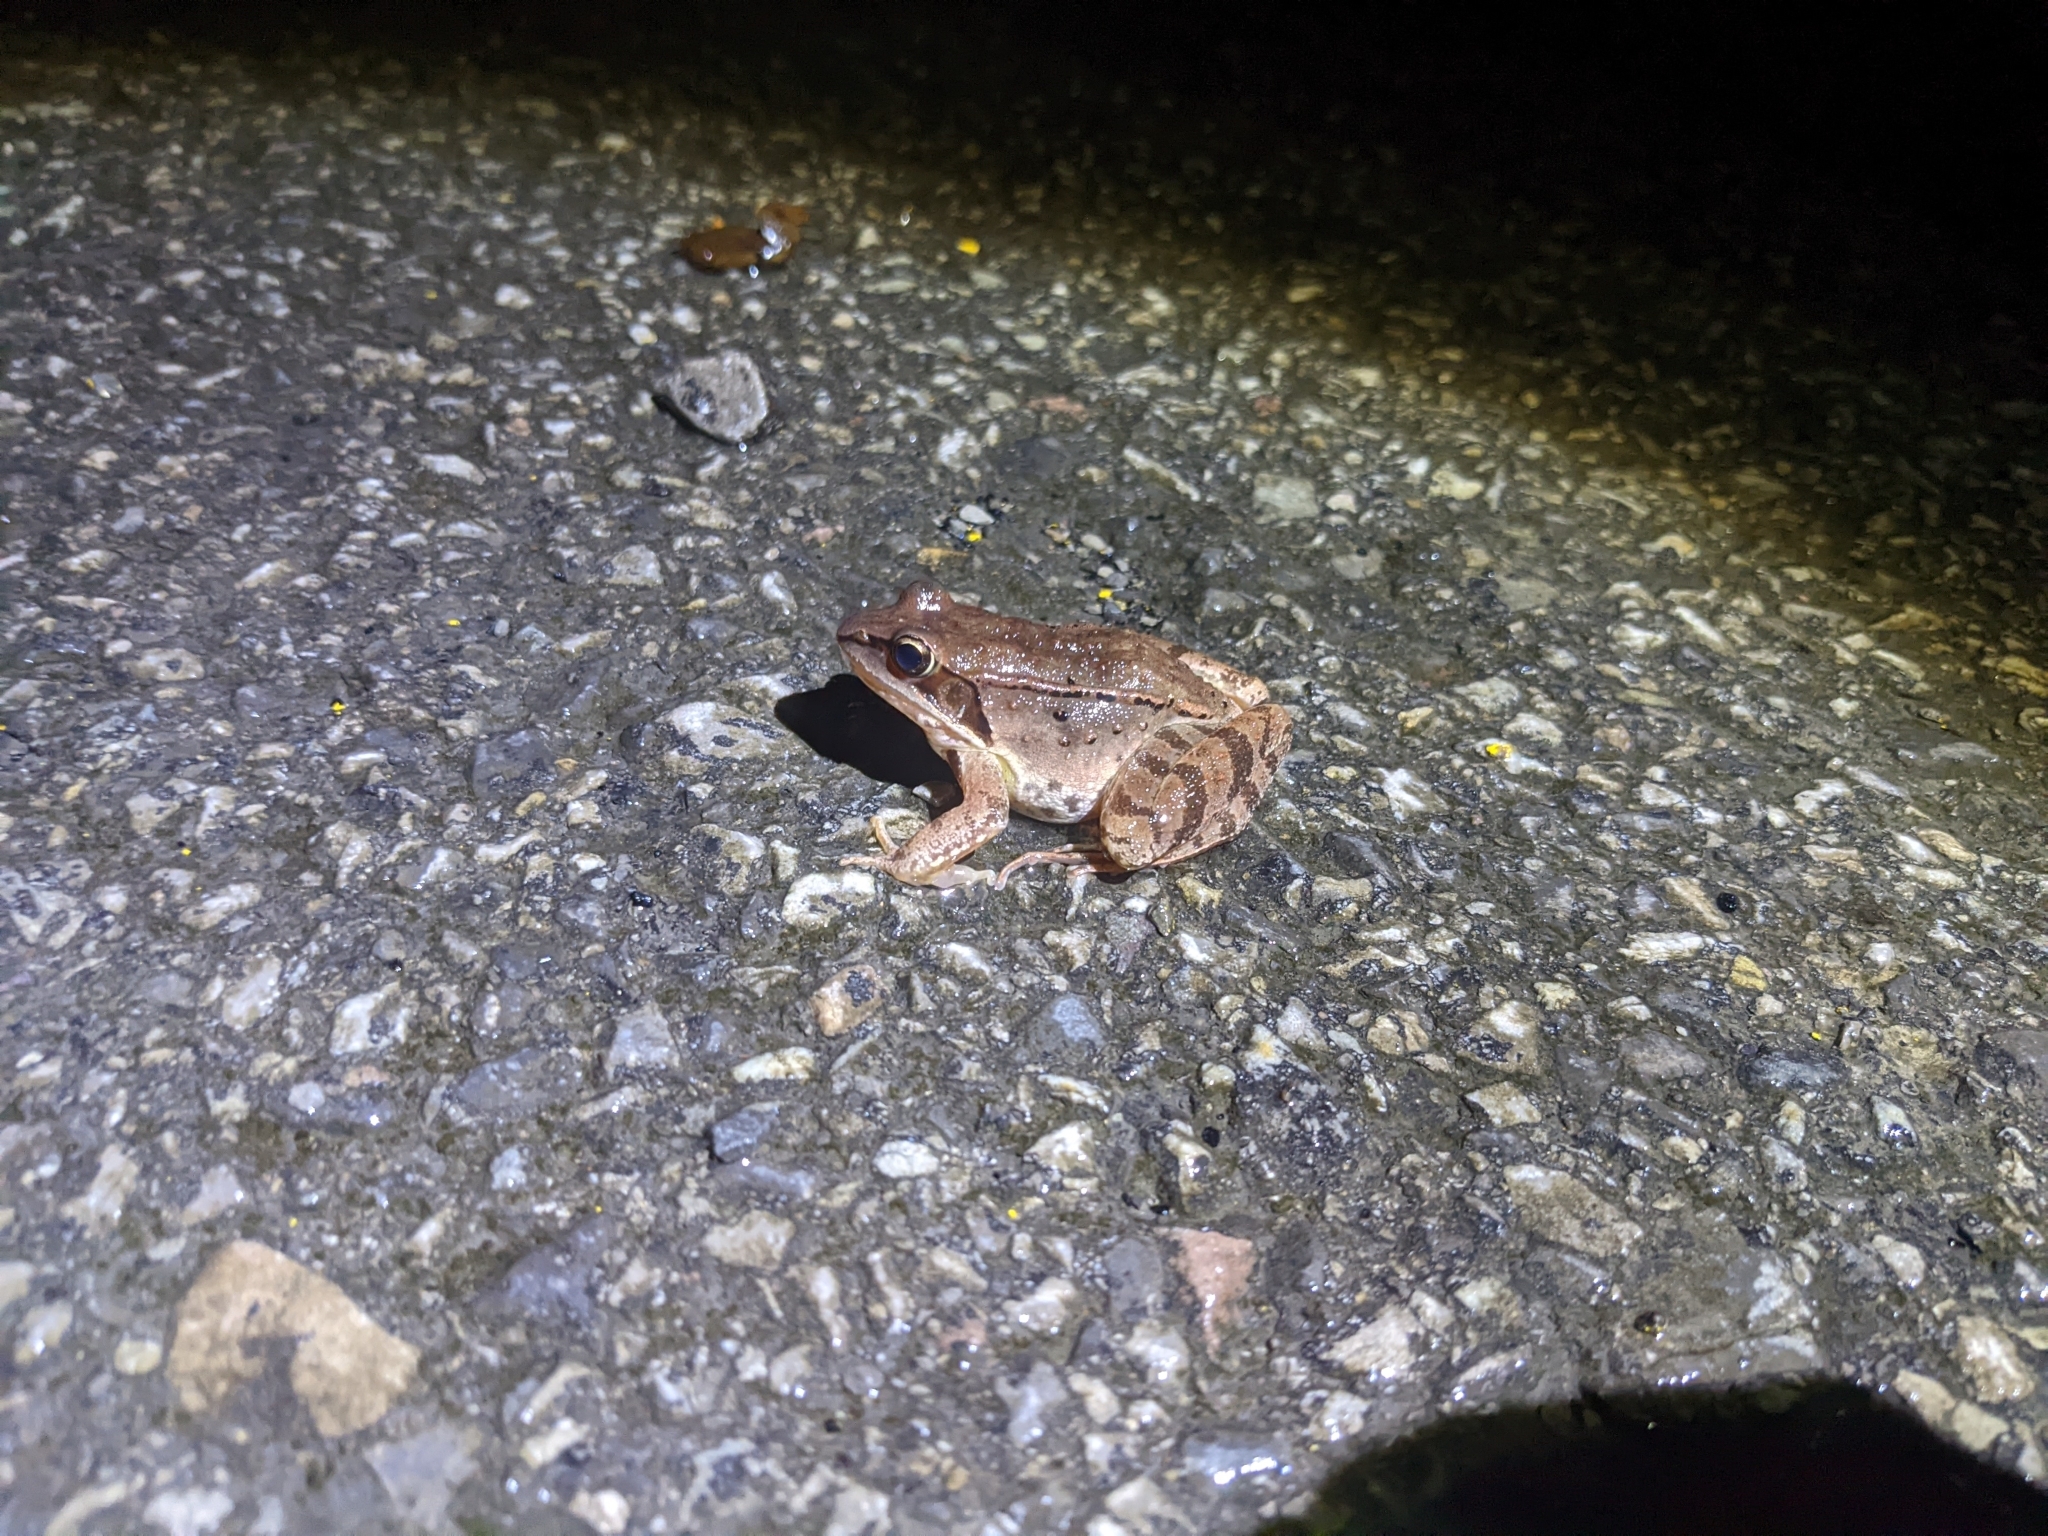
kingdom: Animalia
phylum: Chordata
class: Amphibia
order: Anura
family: Ranidae
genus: Lithobates
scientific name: Lithobates sylvaticus
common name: Wood frog
